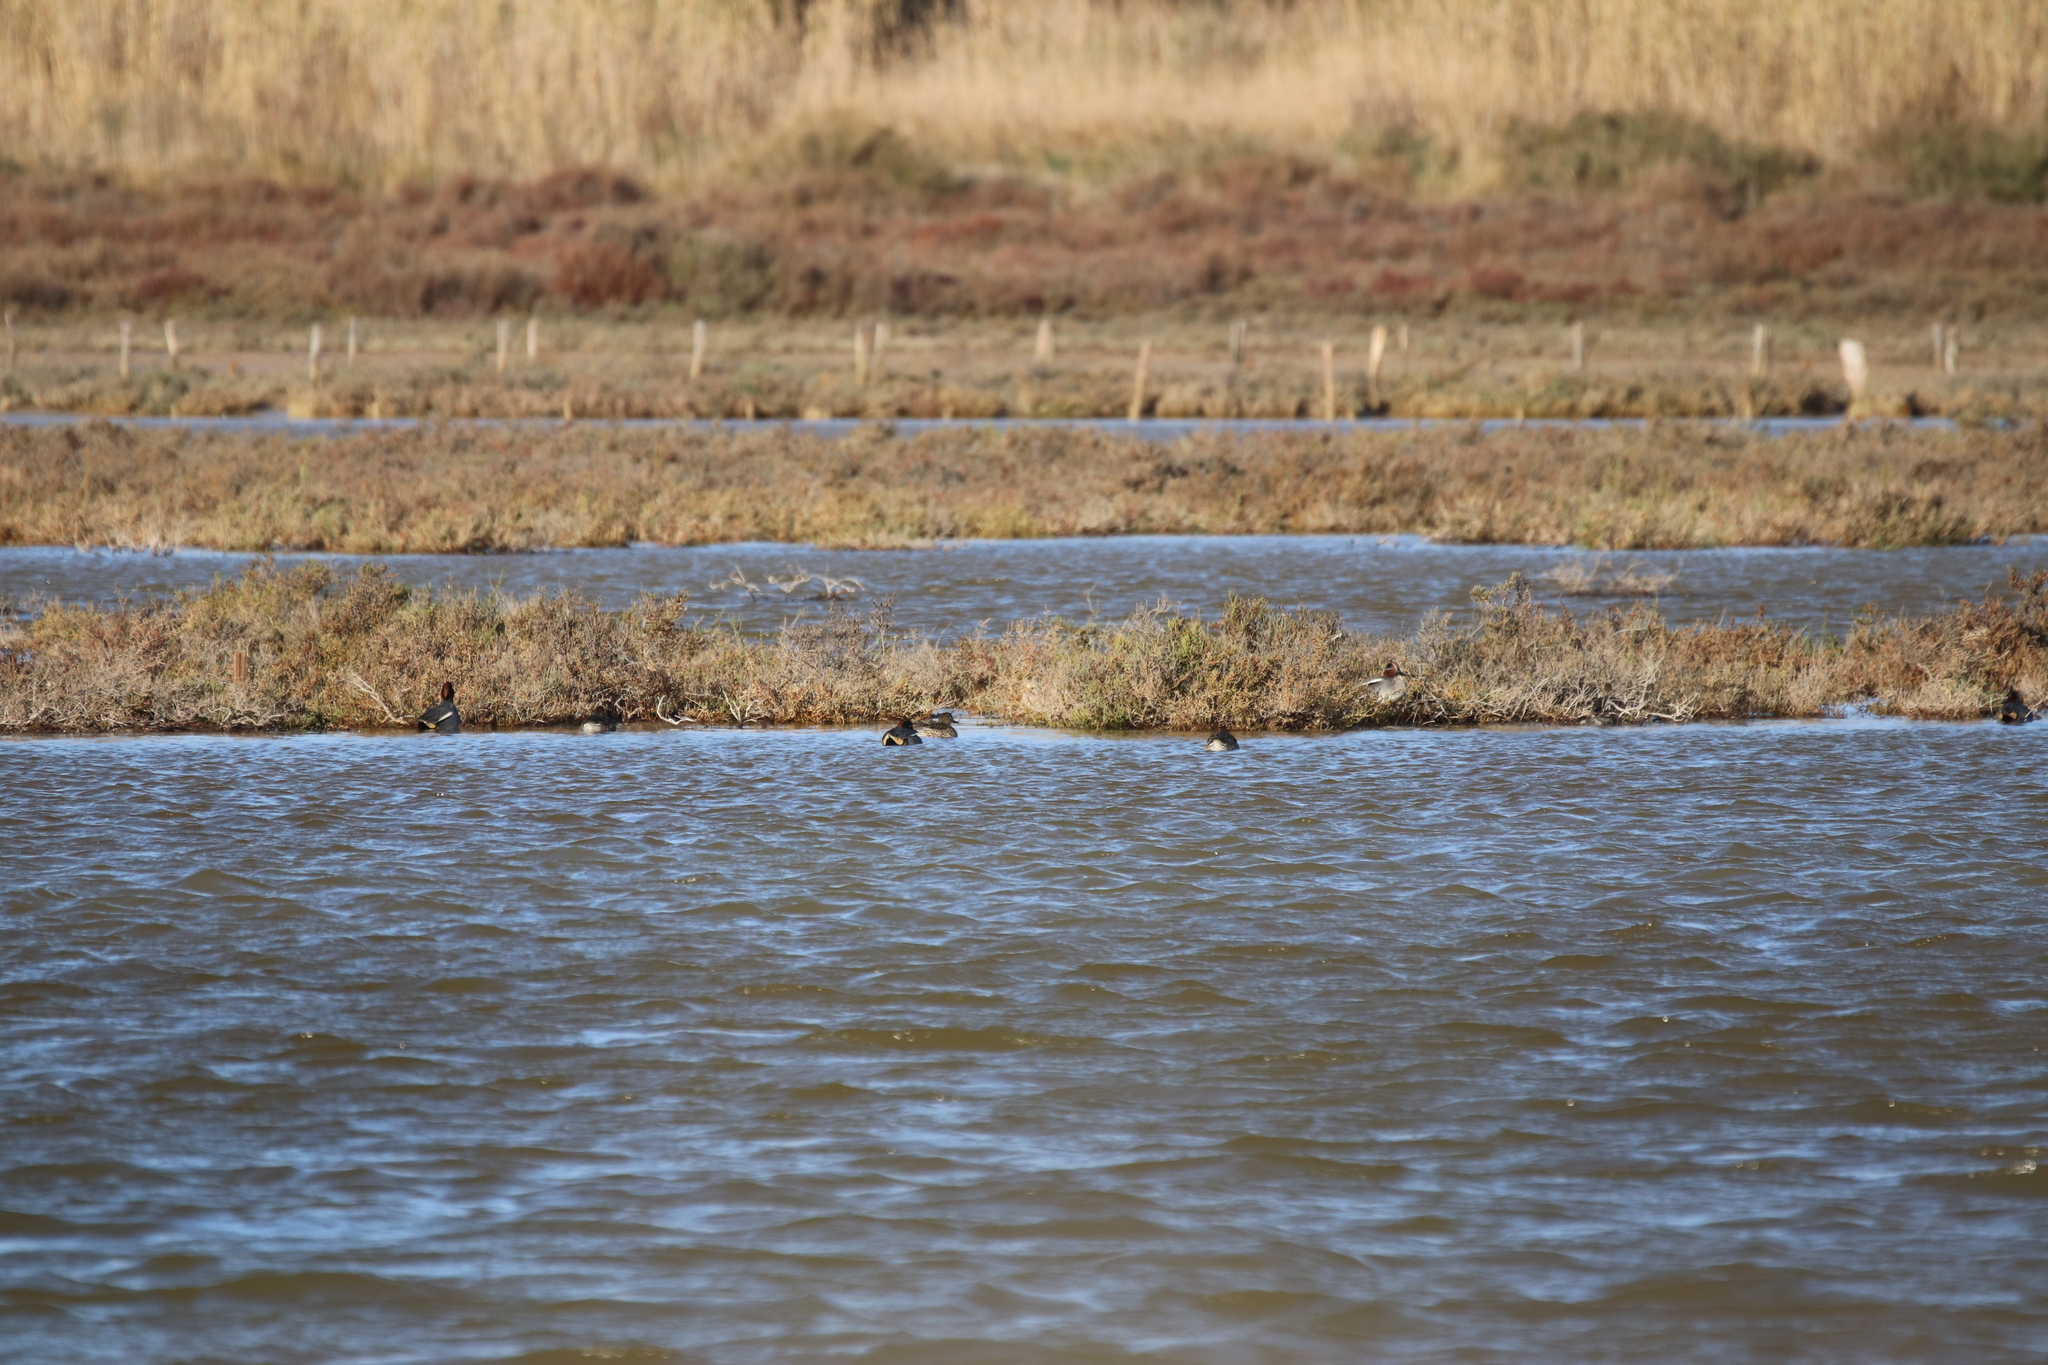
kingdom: Animalia
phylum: Chordata
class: Aves
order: Anseriformes
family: Anatidae
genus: Anas
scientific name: Anas crecca
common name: Eurasian teal
